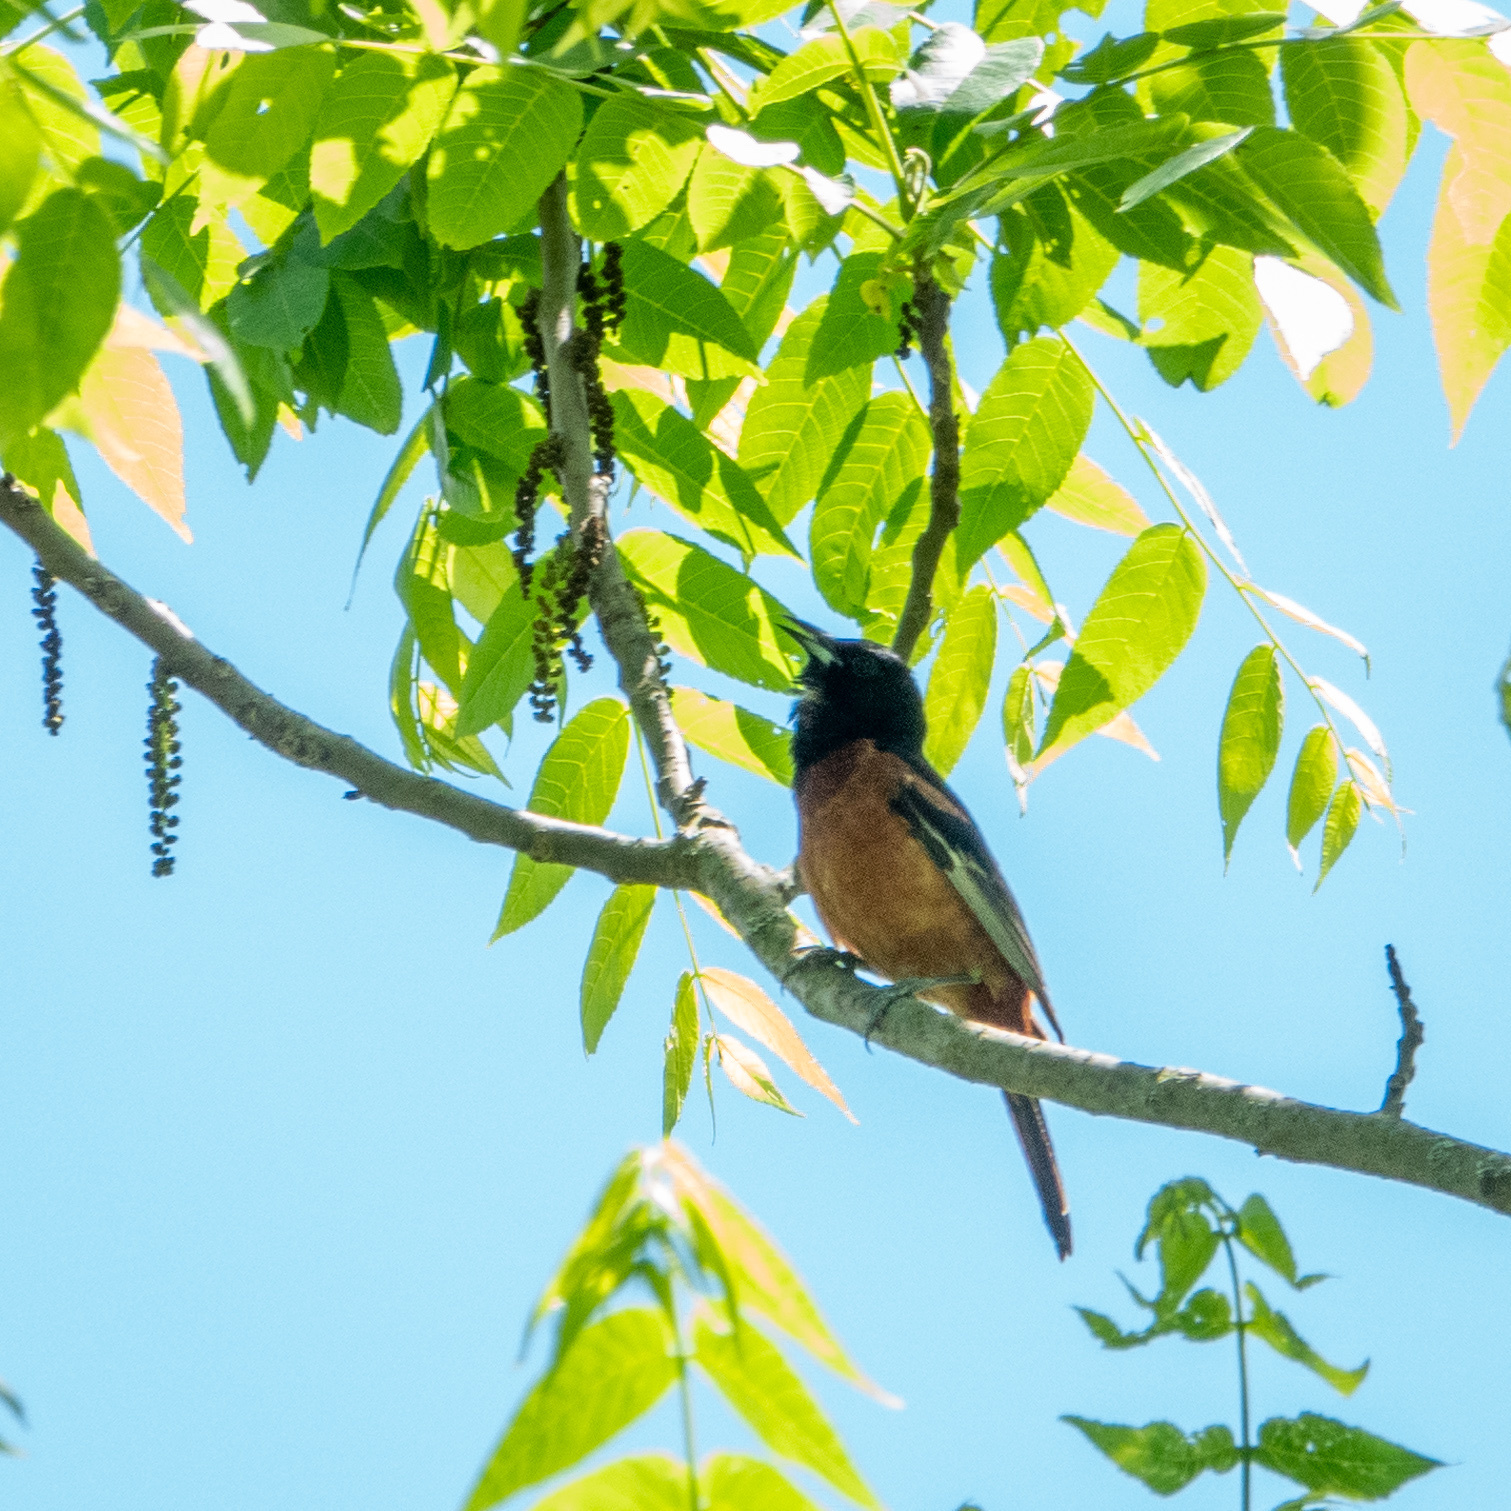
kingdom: Animalia
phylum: Chordata
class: Aves
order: Passeriformes
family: Icteridae
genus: Icterus
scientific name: Icterus spurius
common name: Orchard oriole
